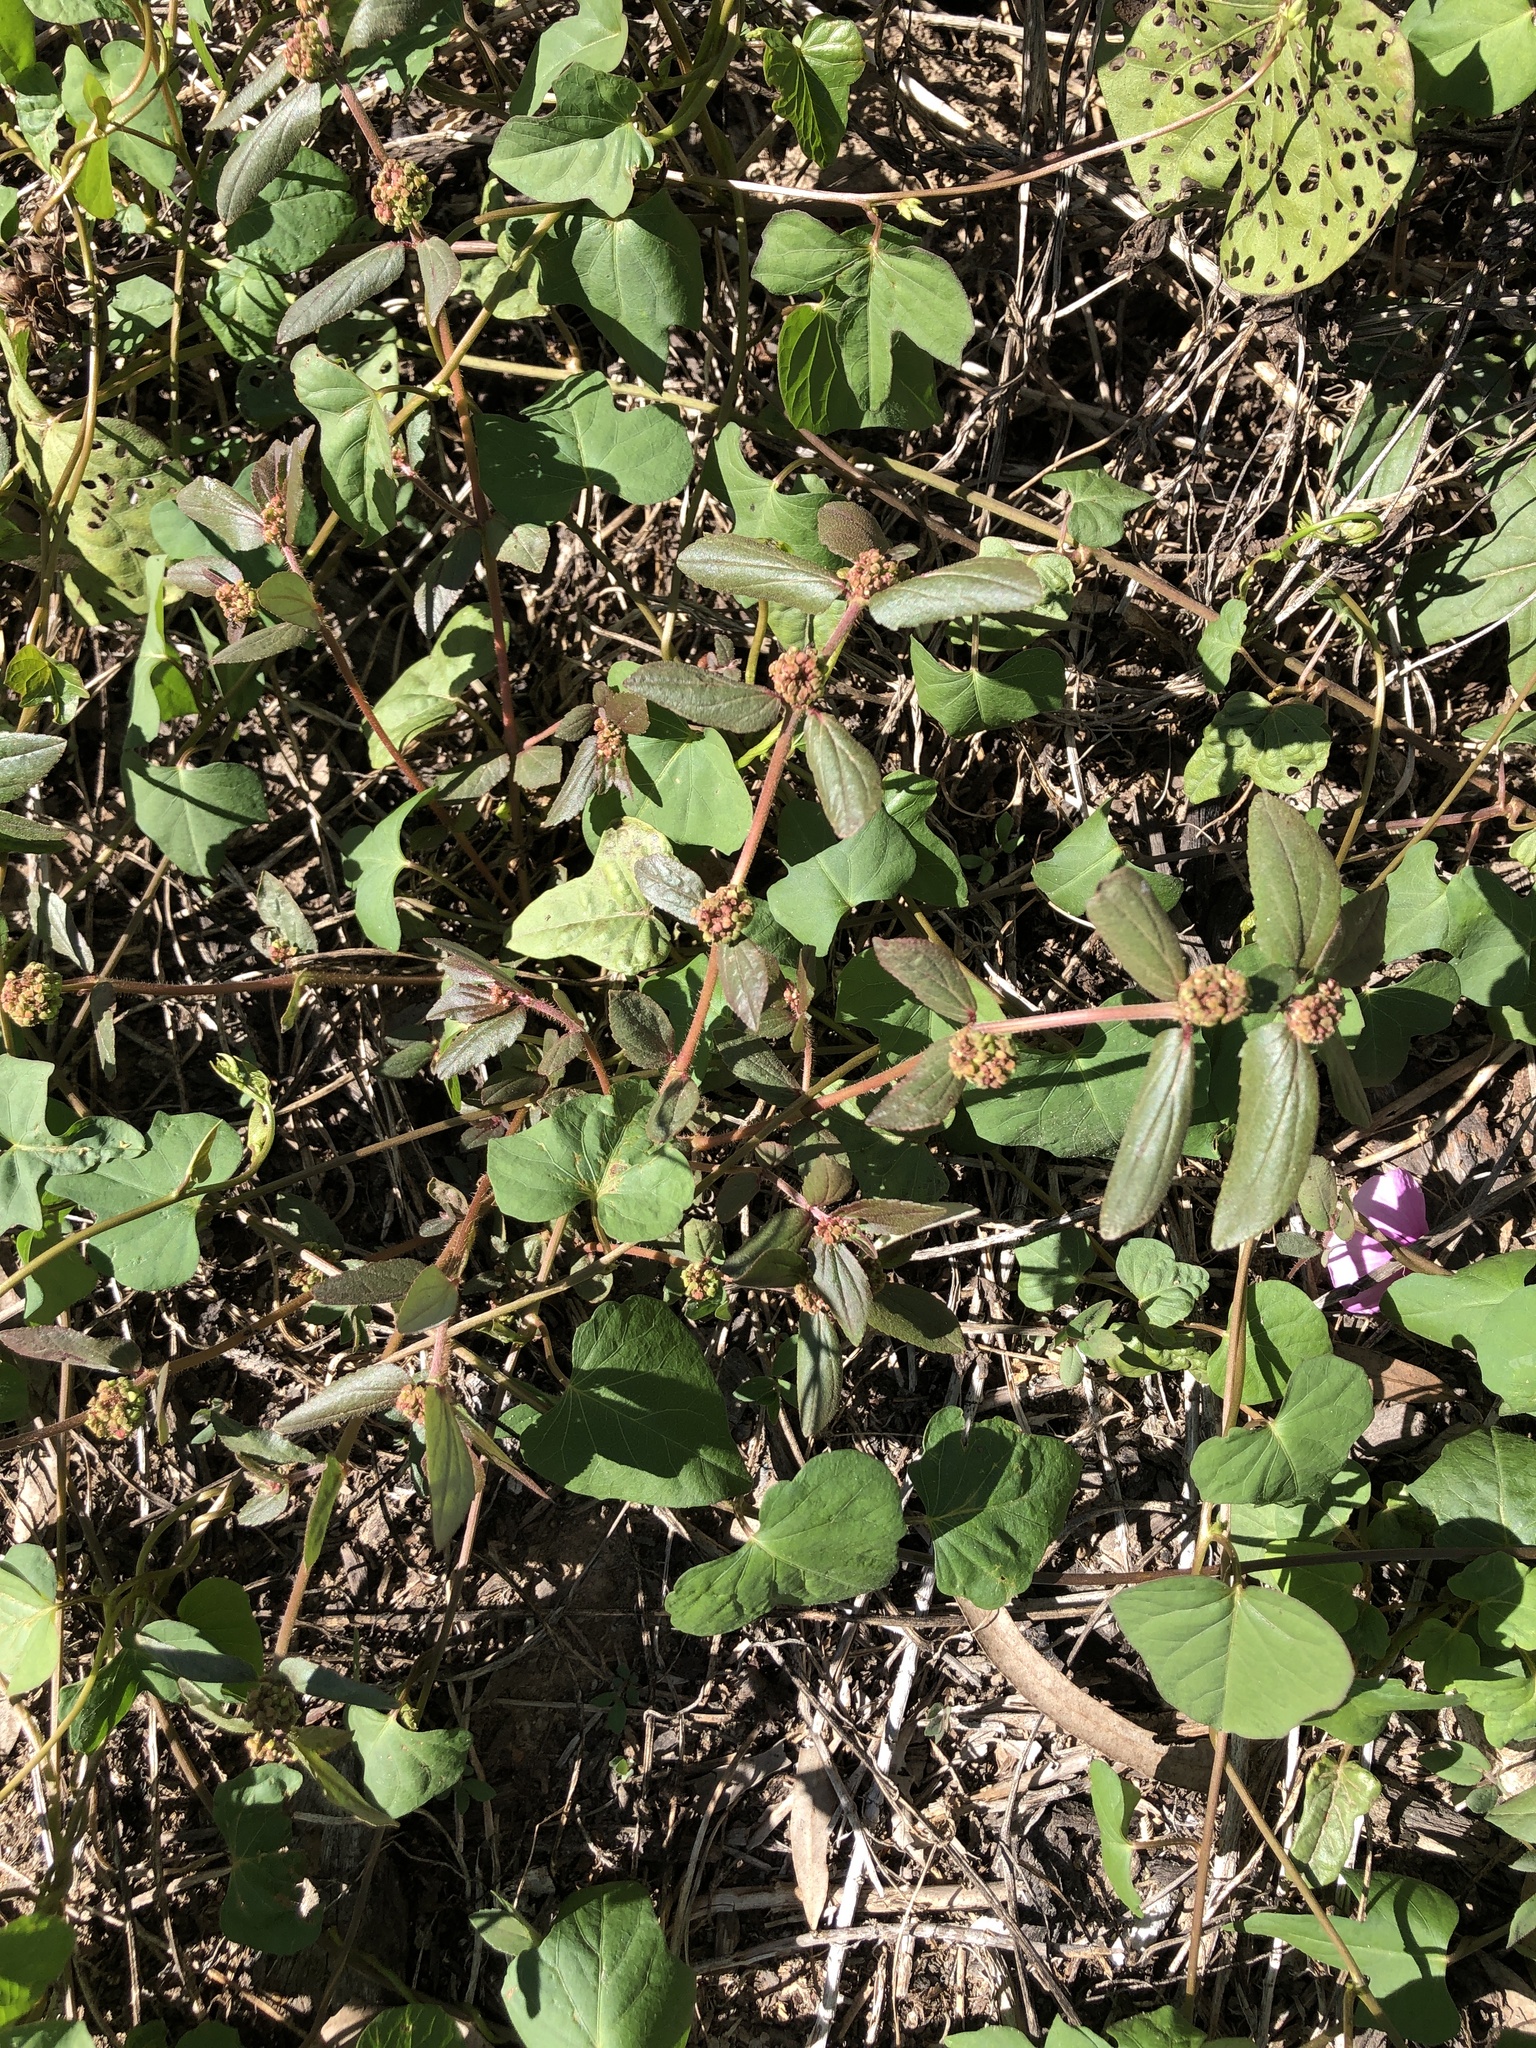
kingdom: Plantae
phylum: Tracheophyta
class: Magnoliopsida
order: Malpighiales
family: Euphorbiaceae
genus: Euphorbia
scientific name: Euphorbia hirta
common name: Pillpod sandmat
